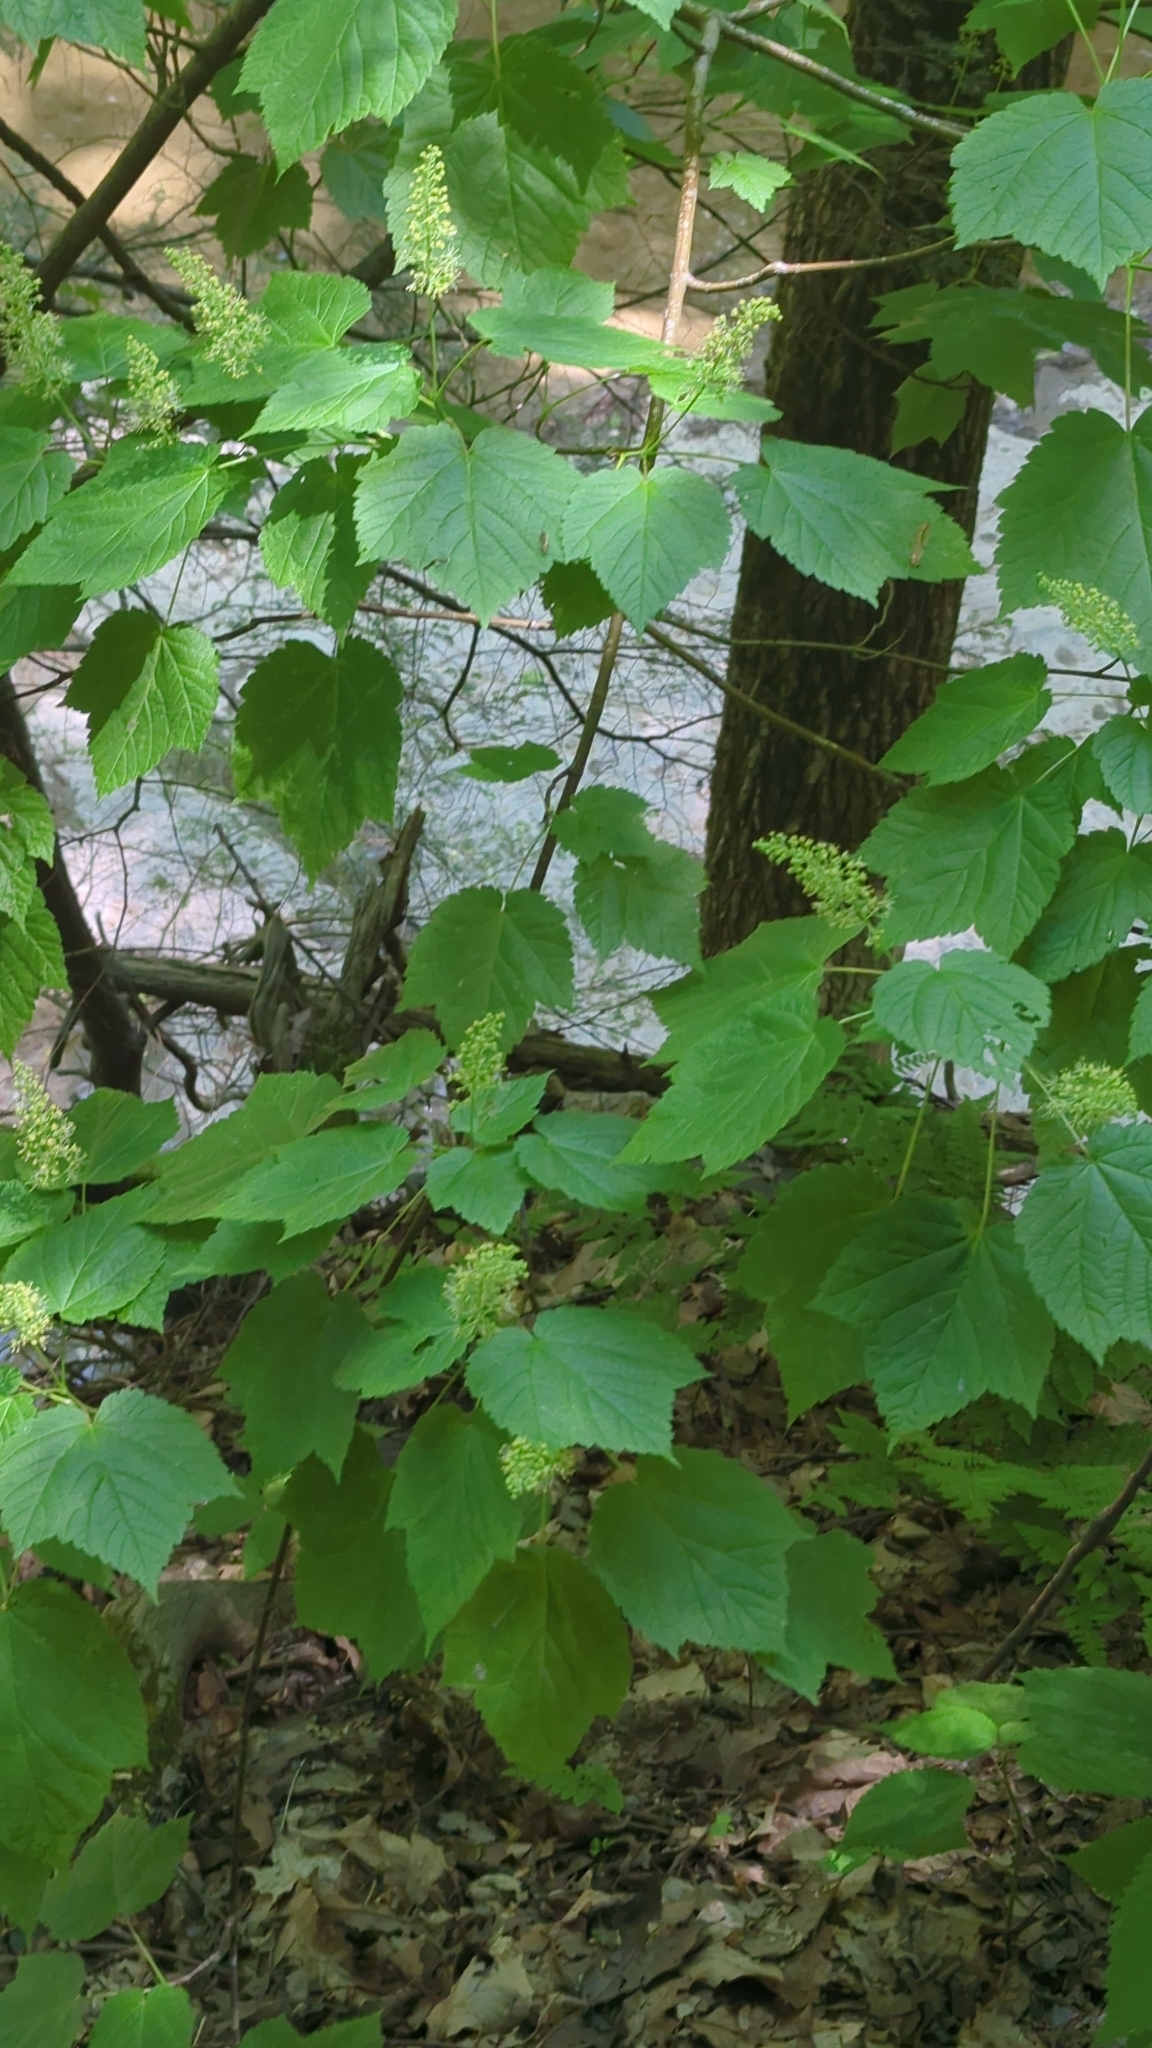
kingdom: Plantae
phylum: Tracheophyta
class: Magnoliopsida
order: Sapindales
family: Sapindaceae
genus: Acer
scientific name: Acer spicatum
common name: Mountain maple
